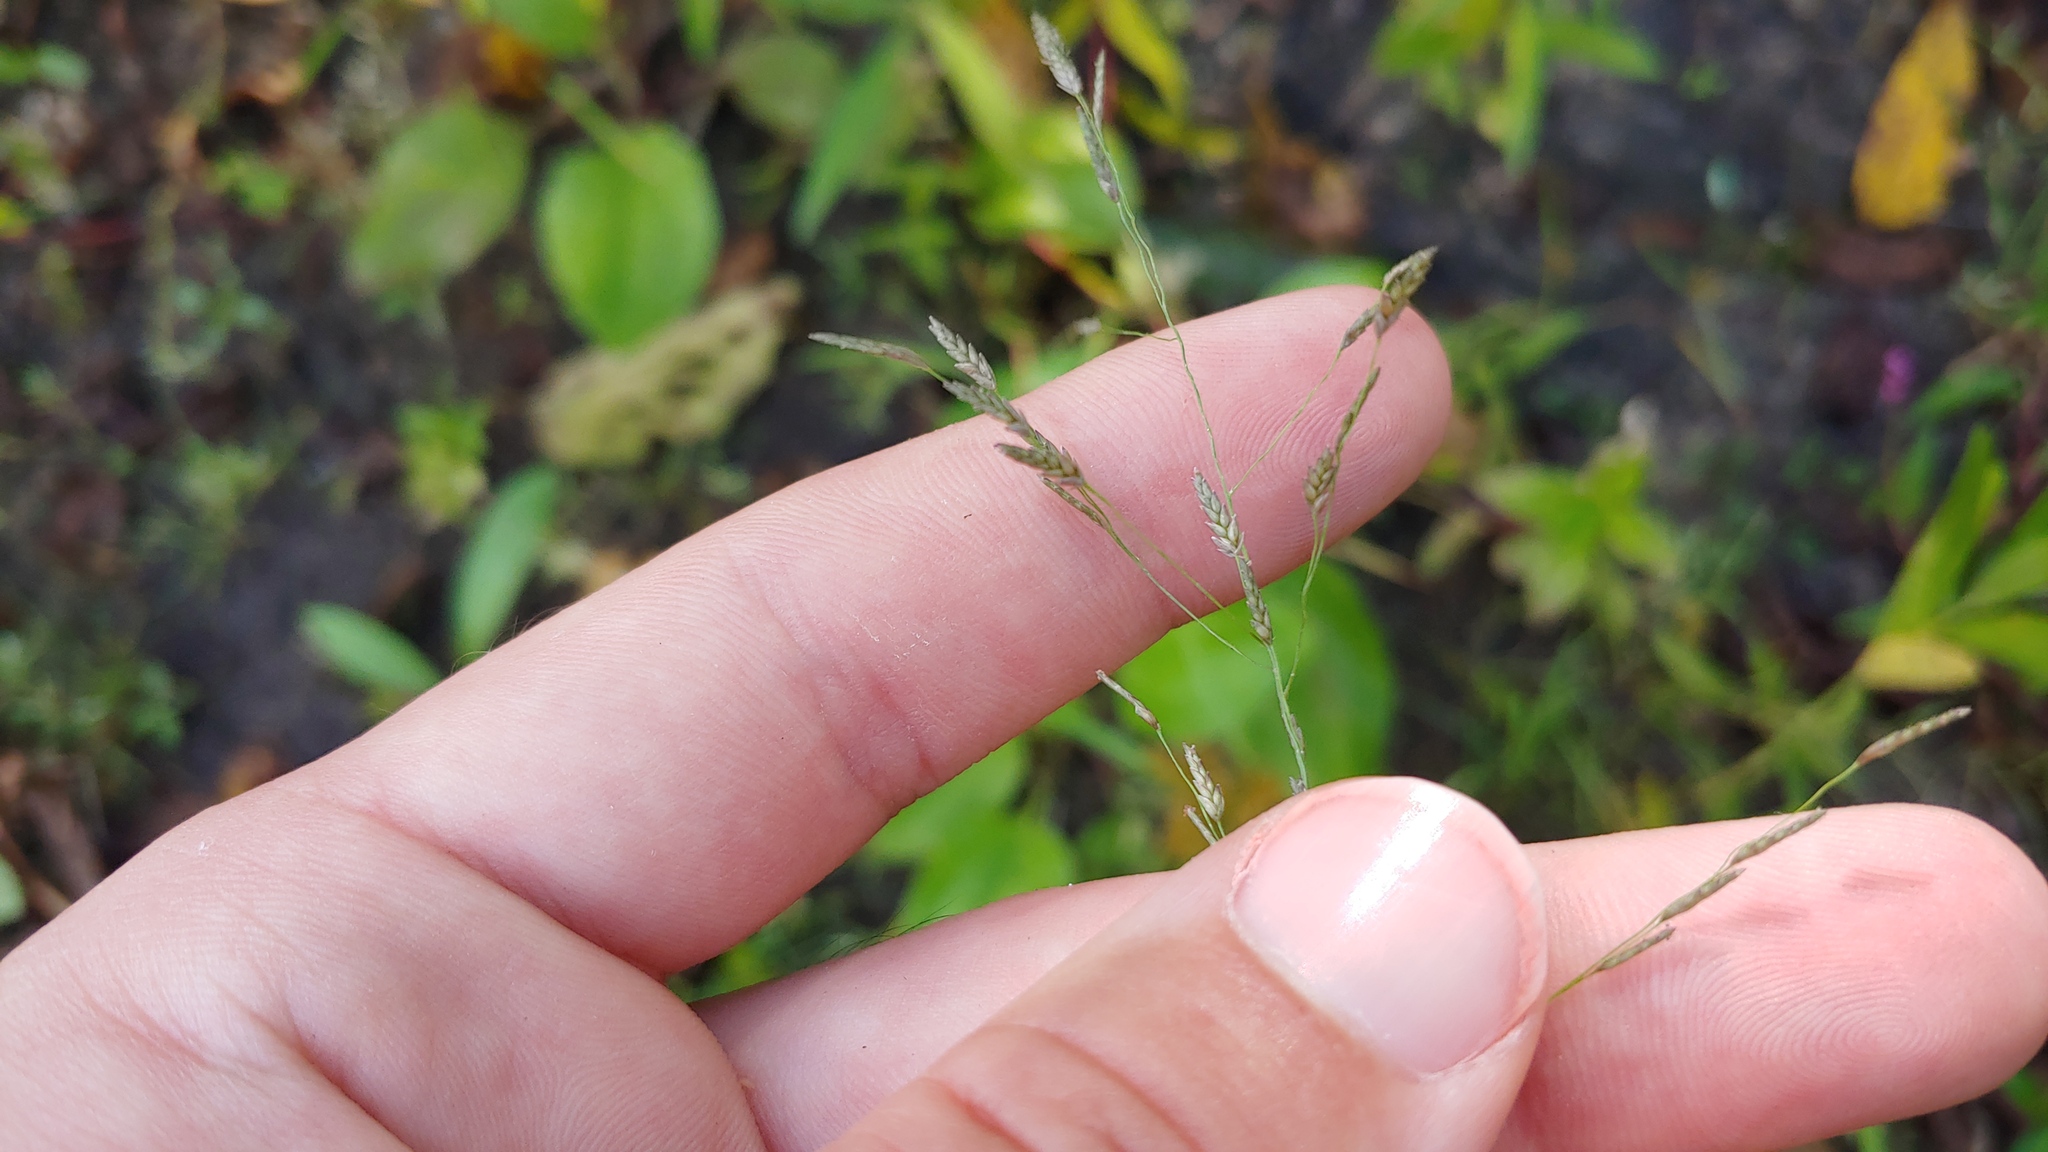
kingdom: Plantae
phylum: Tracheophyta
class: Liliopsida
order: Poales
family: Poaceae
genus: Eragrostis
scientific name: Eragrostis pectinacea
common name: Tufted lovegrass
